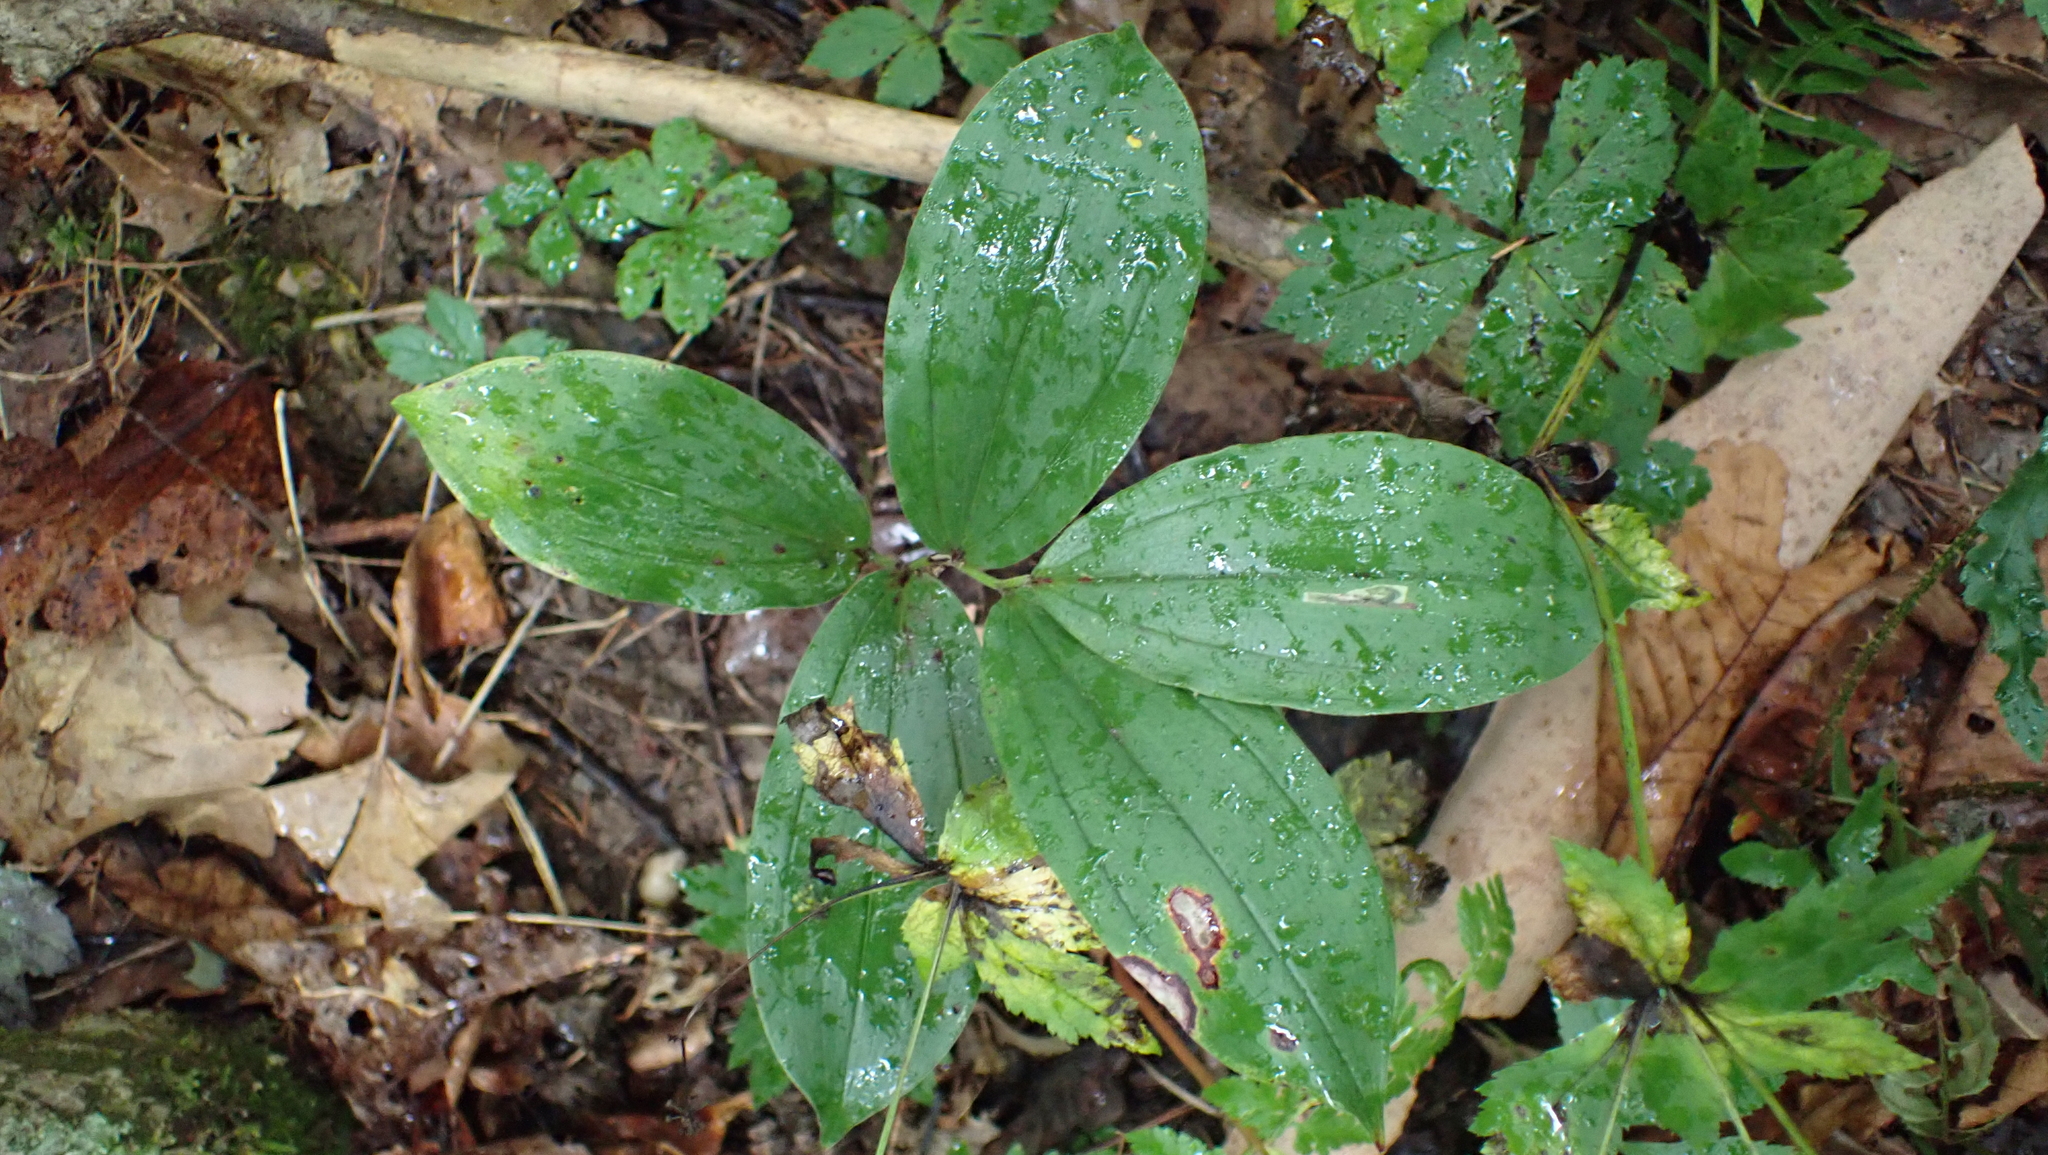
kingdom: Plantae
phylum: Tracheophyta
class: Liliopsida
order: Asparagales
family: Asparagaceae
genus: Maianthemum
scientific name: Maianthemum racemosum
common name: False spikenard
